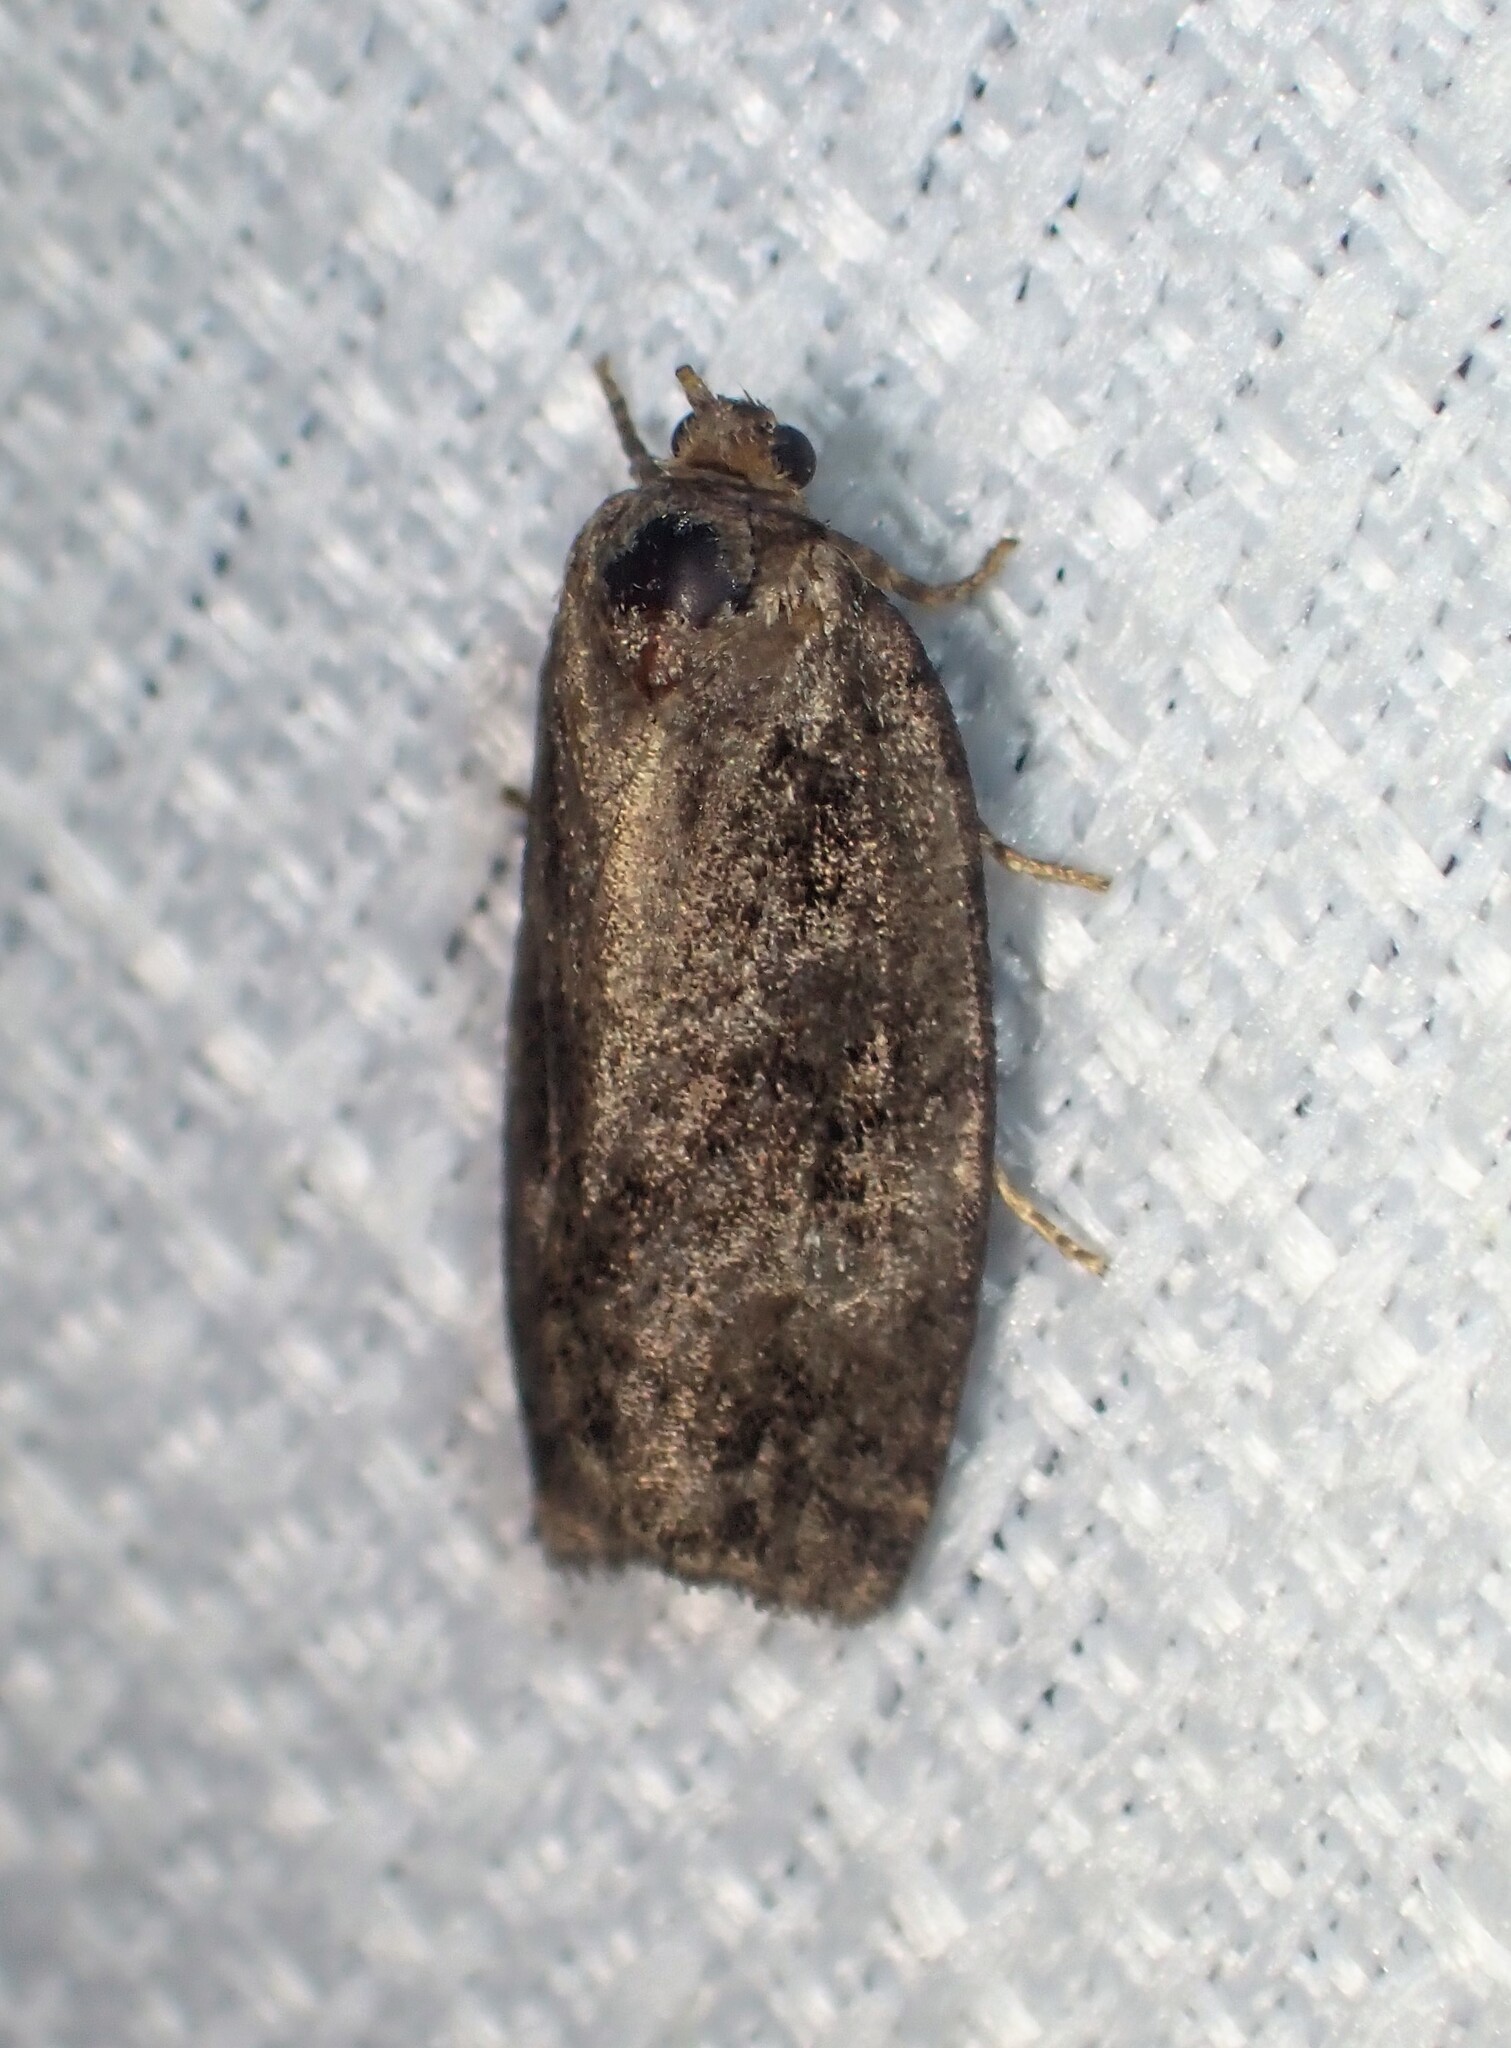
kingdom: Animalia
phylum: Arthropoda
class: Insecta
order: Lepidoptera
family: Tortricidae
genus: Choristoneura
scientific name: Choristoneura fumiferana
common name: Spruce budworm
